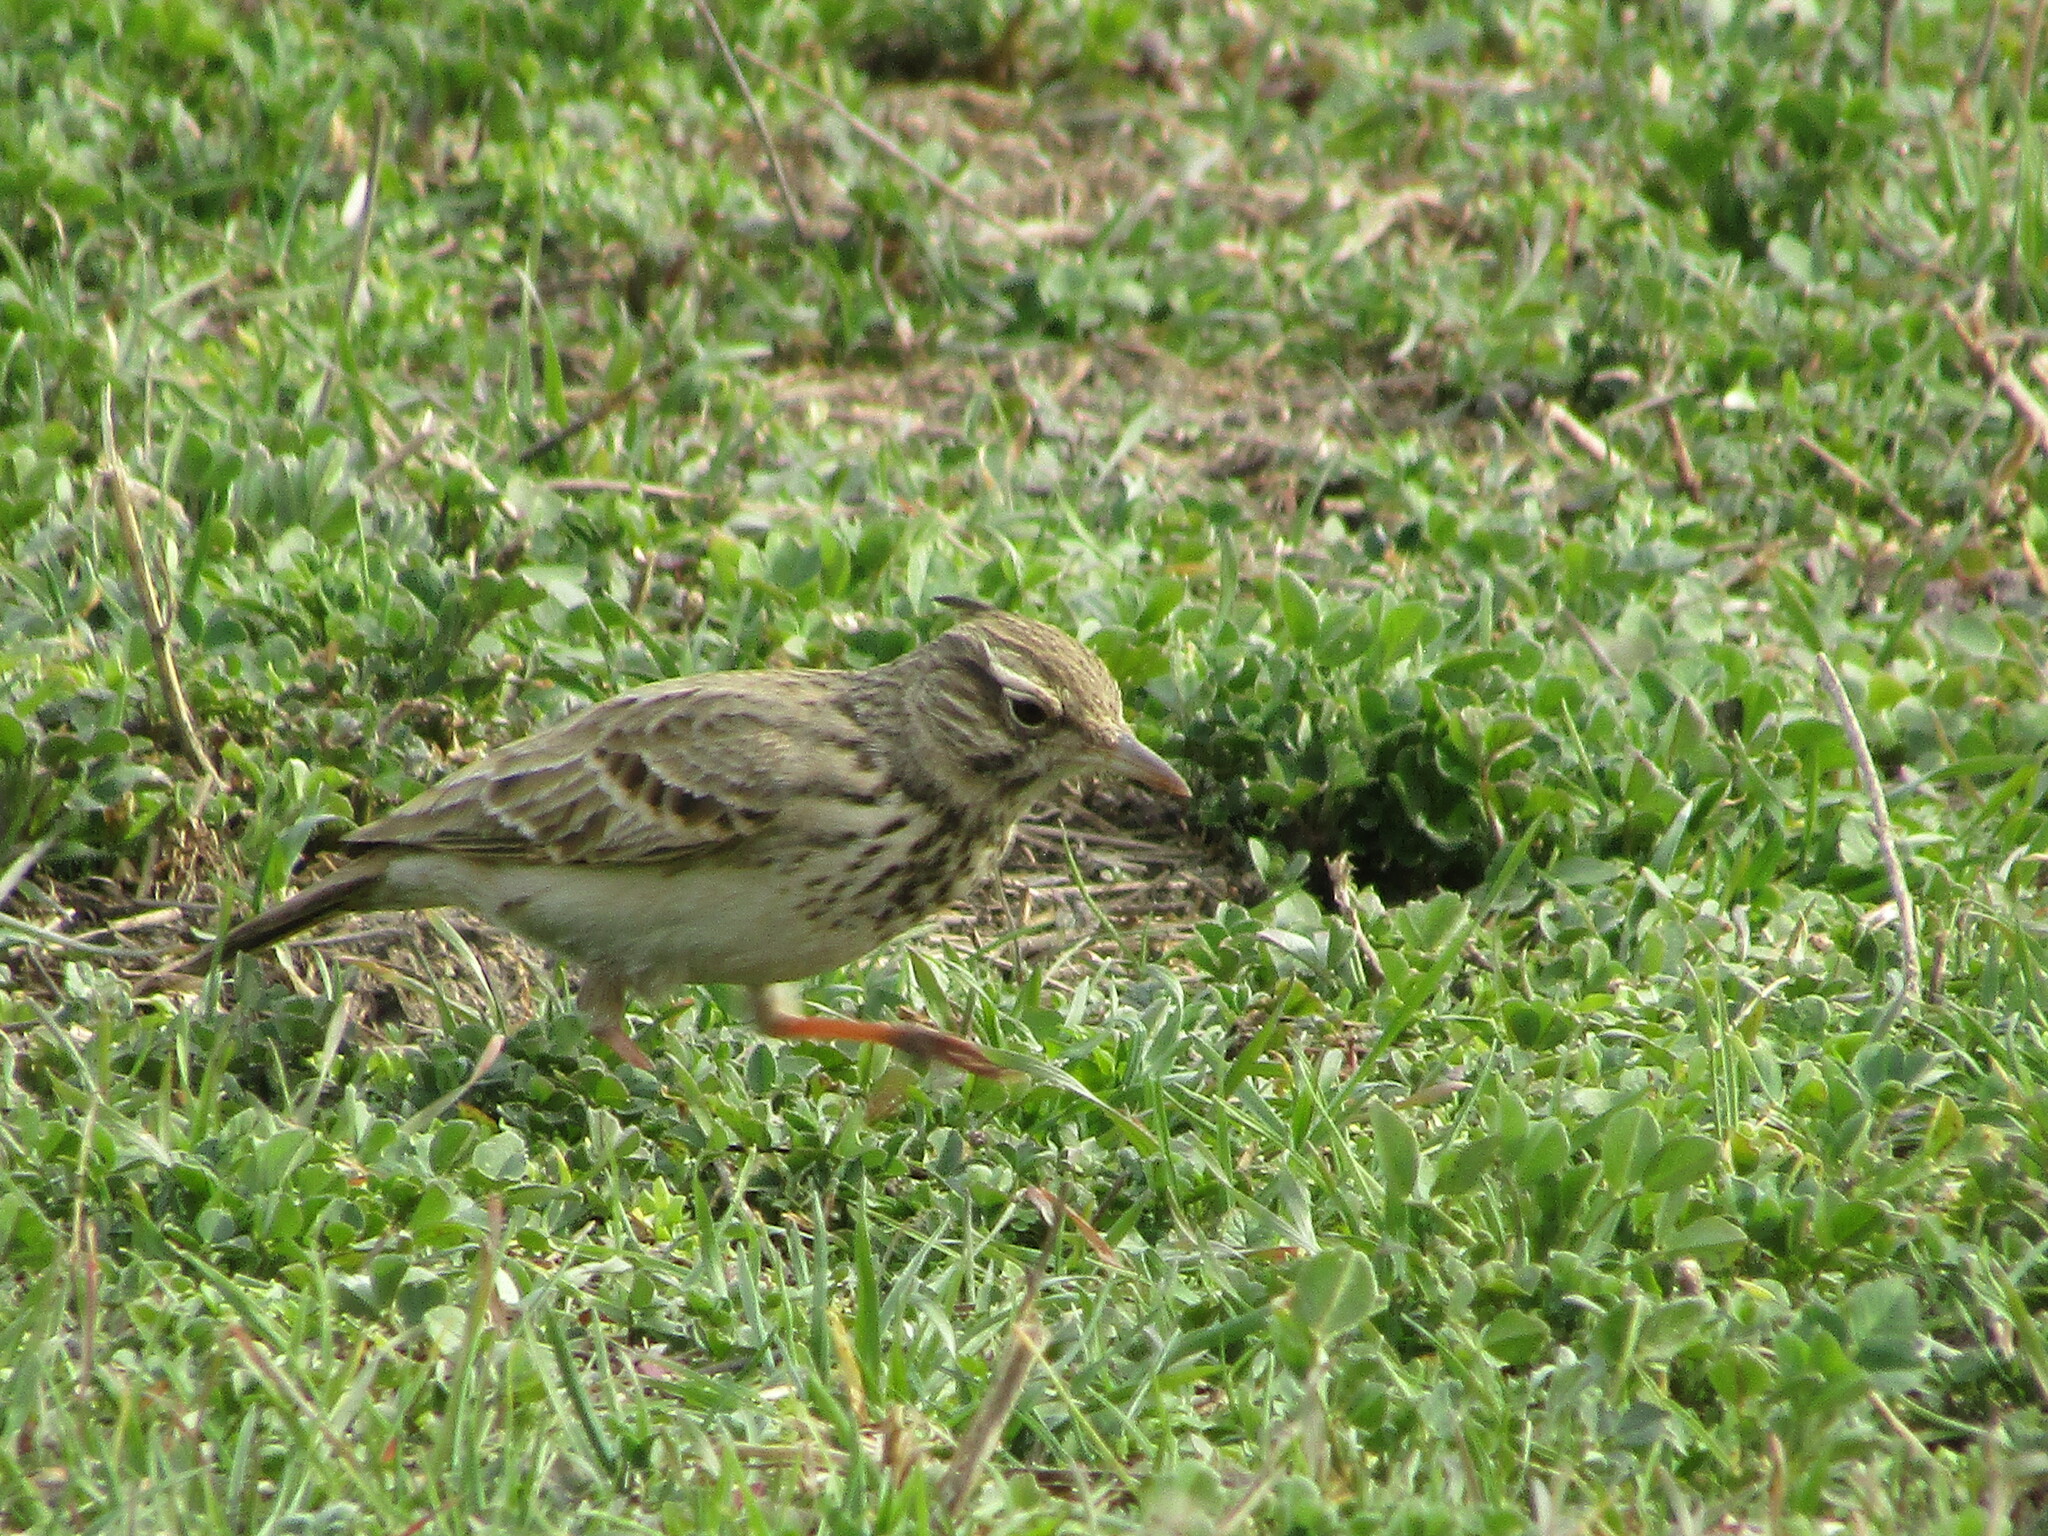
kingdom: Animalia
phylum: Chordata
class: Aves
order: Passeriformes
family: Alaudidae
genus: Galerida
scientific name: Galerida cristata
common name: Crested lark
